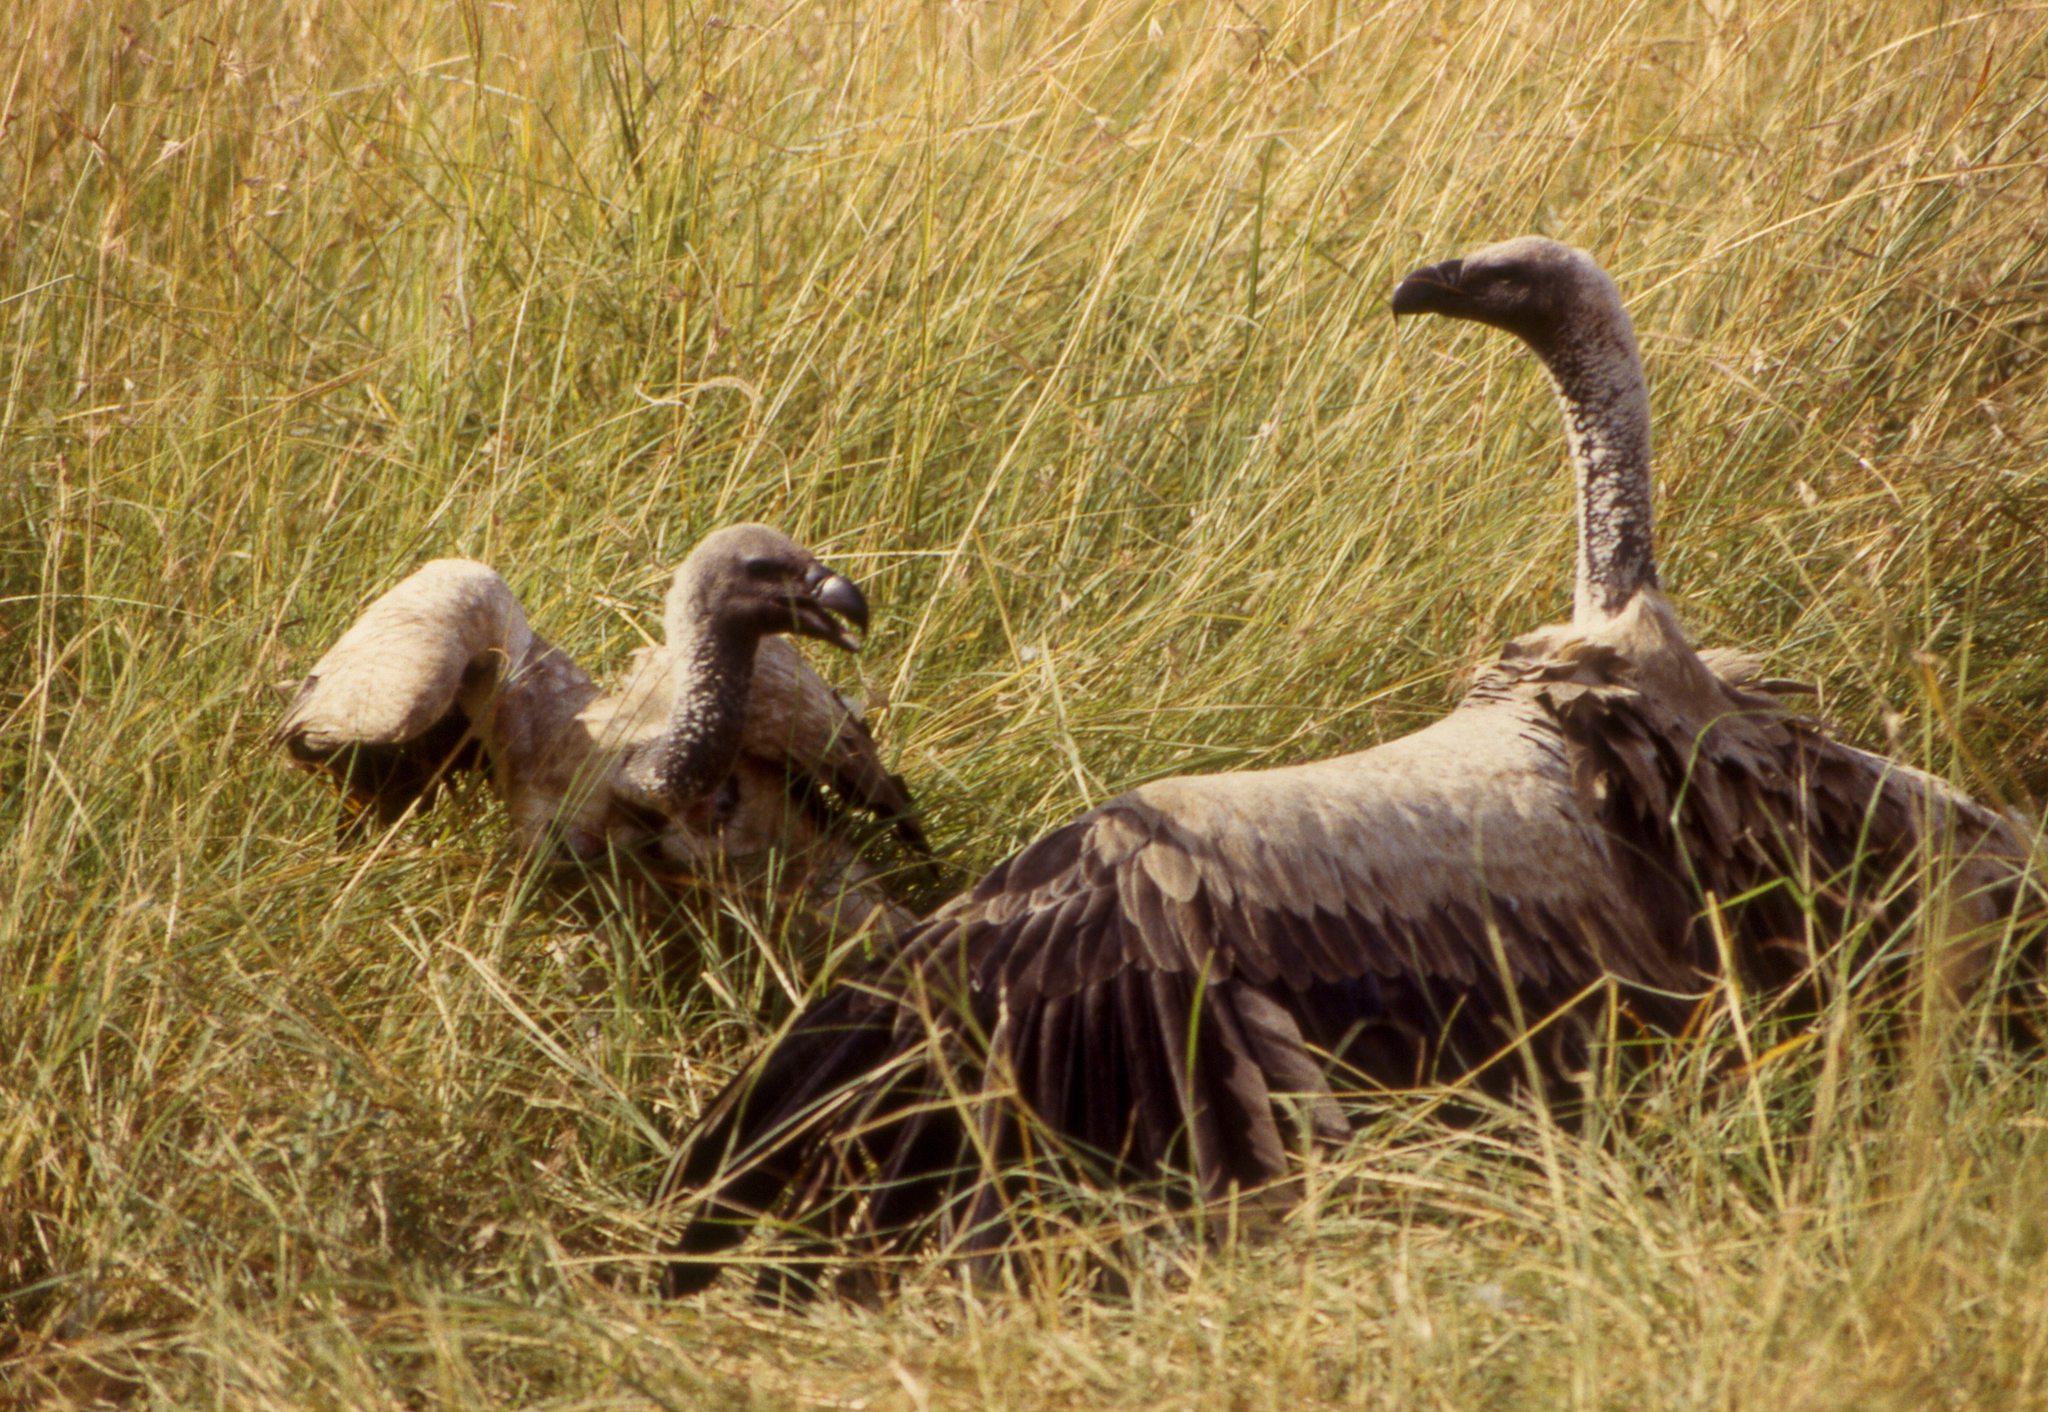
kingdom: Animalia
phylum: Chordata
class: Aves
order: Accipitriformes
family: Accipitridae
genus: Gyps
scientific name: Gyps africanus
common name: White-backed vulture
